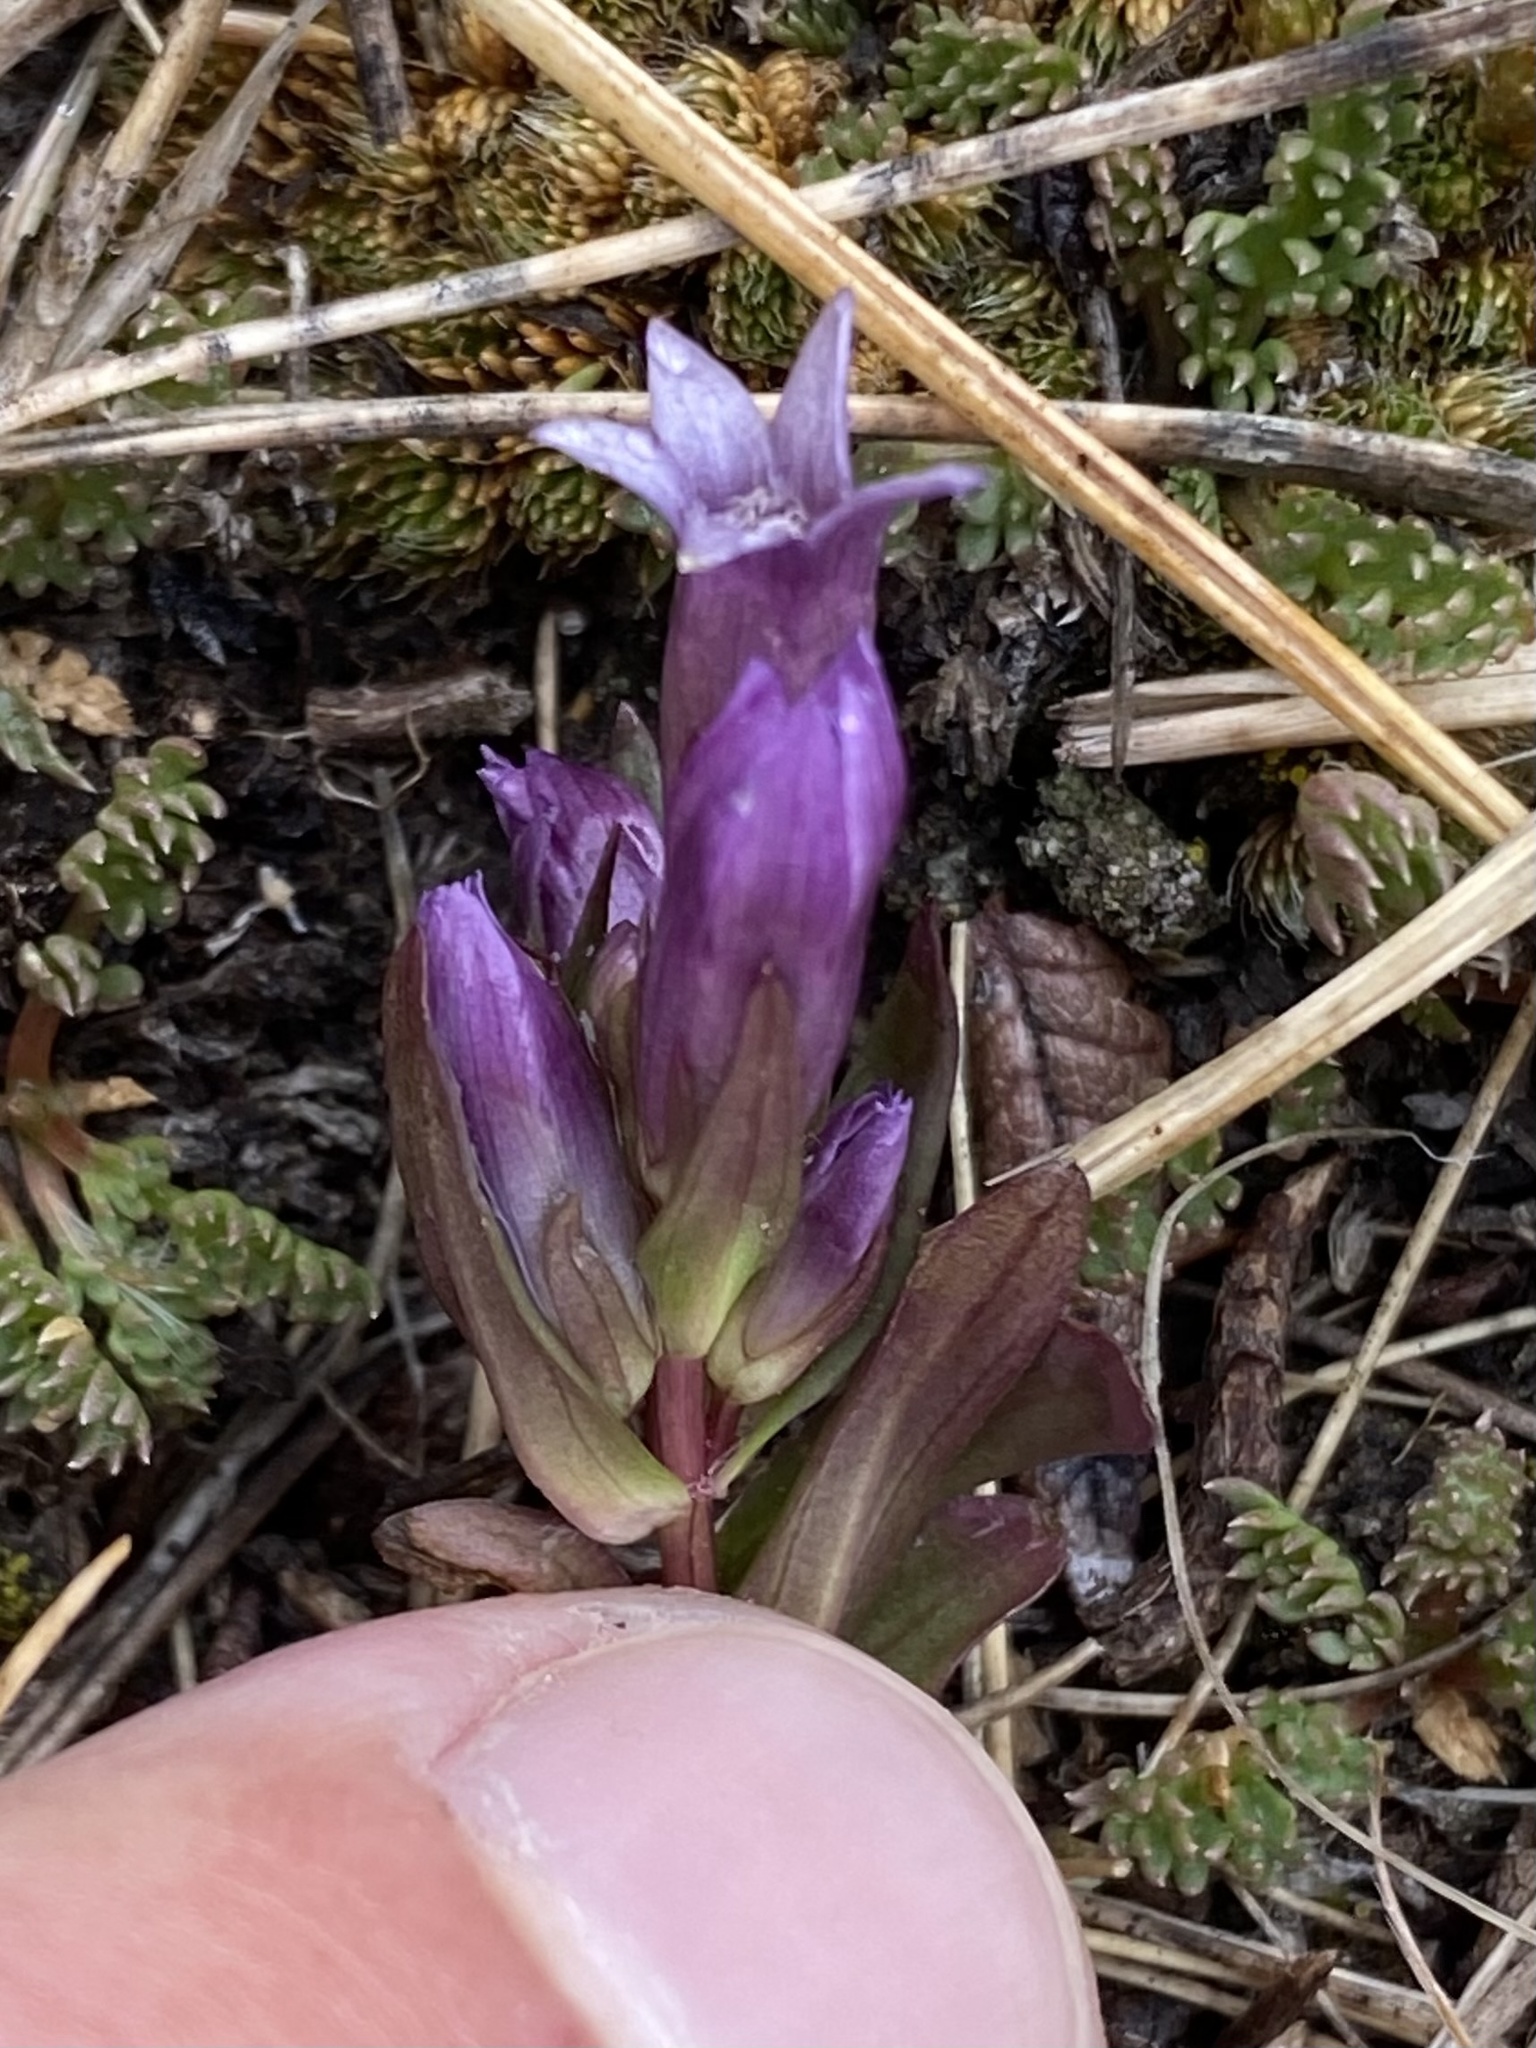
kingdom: Plantae
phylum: Tracheophyta
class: Magnoliopsida
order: Gentianales
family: Gentianaceae
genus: Gentianella
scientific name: Gentianella amarella
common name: Autumn gentian
